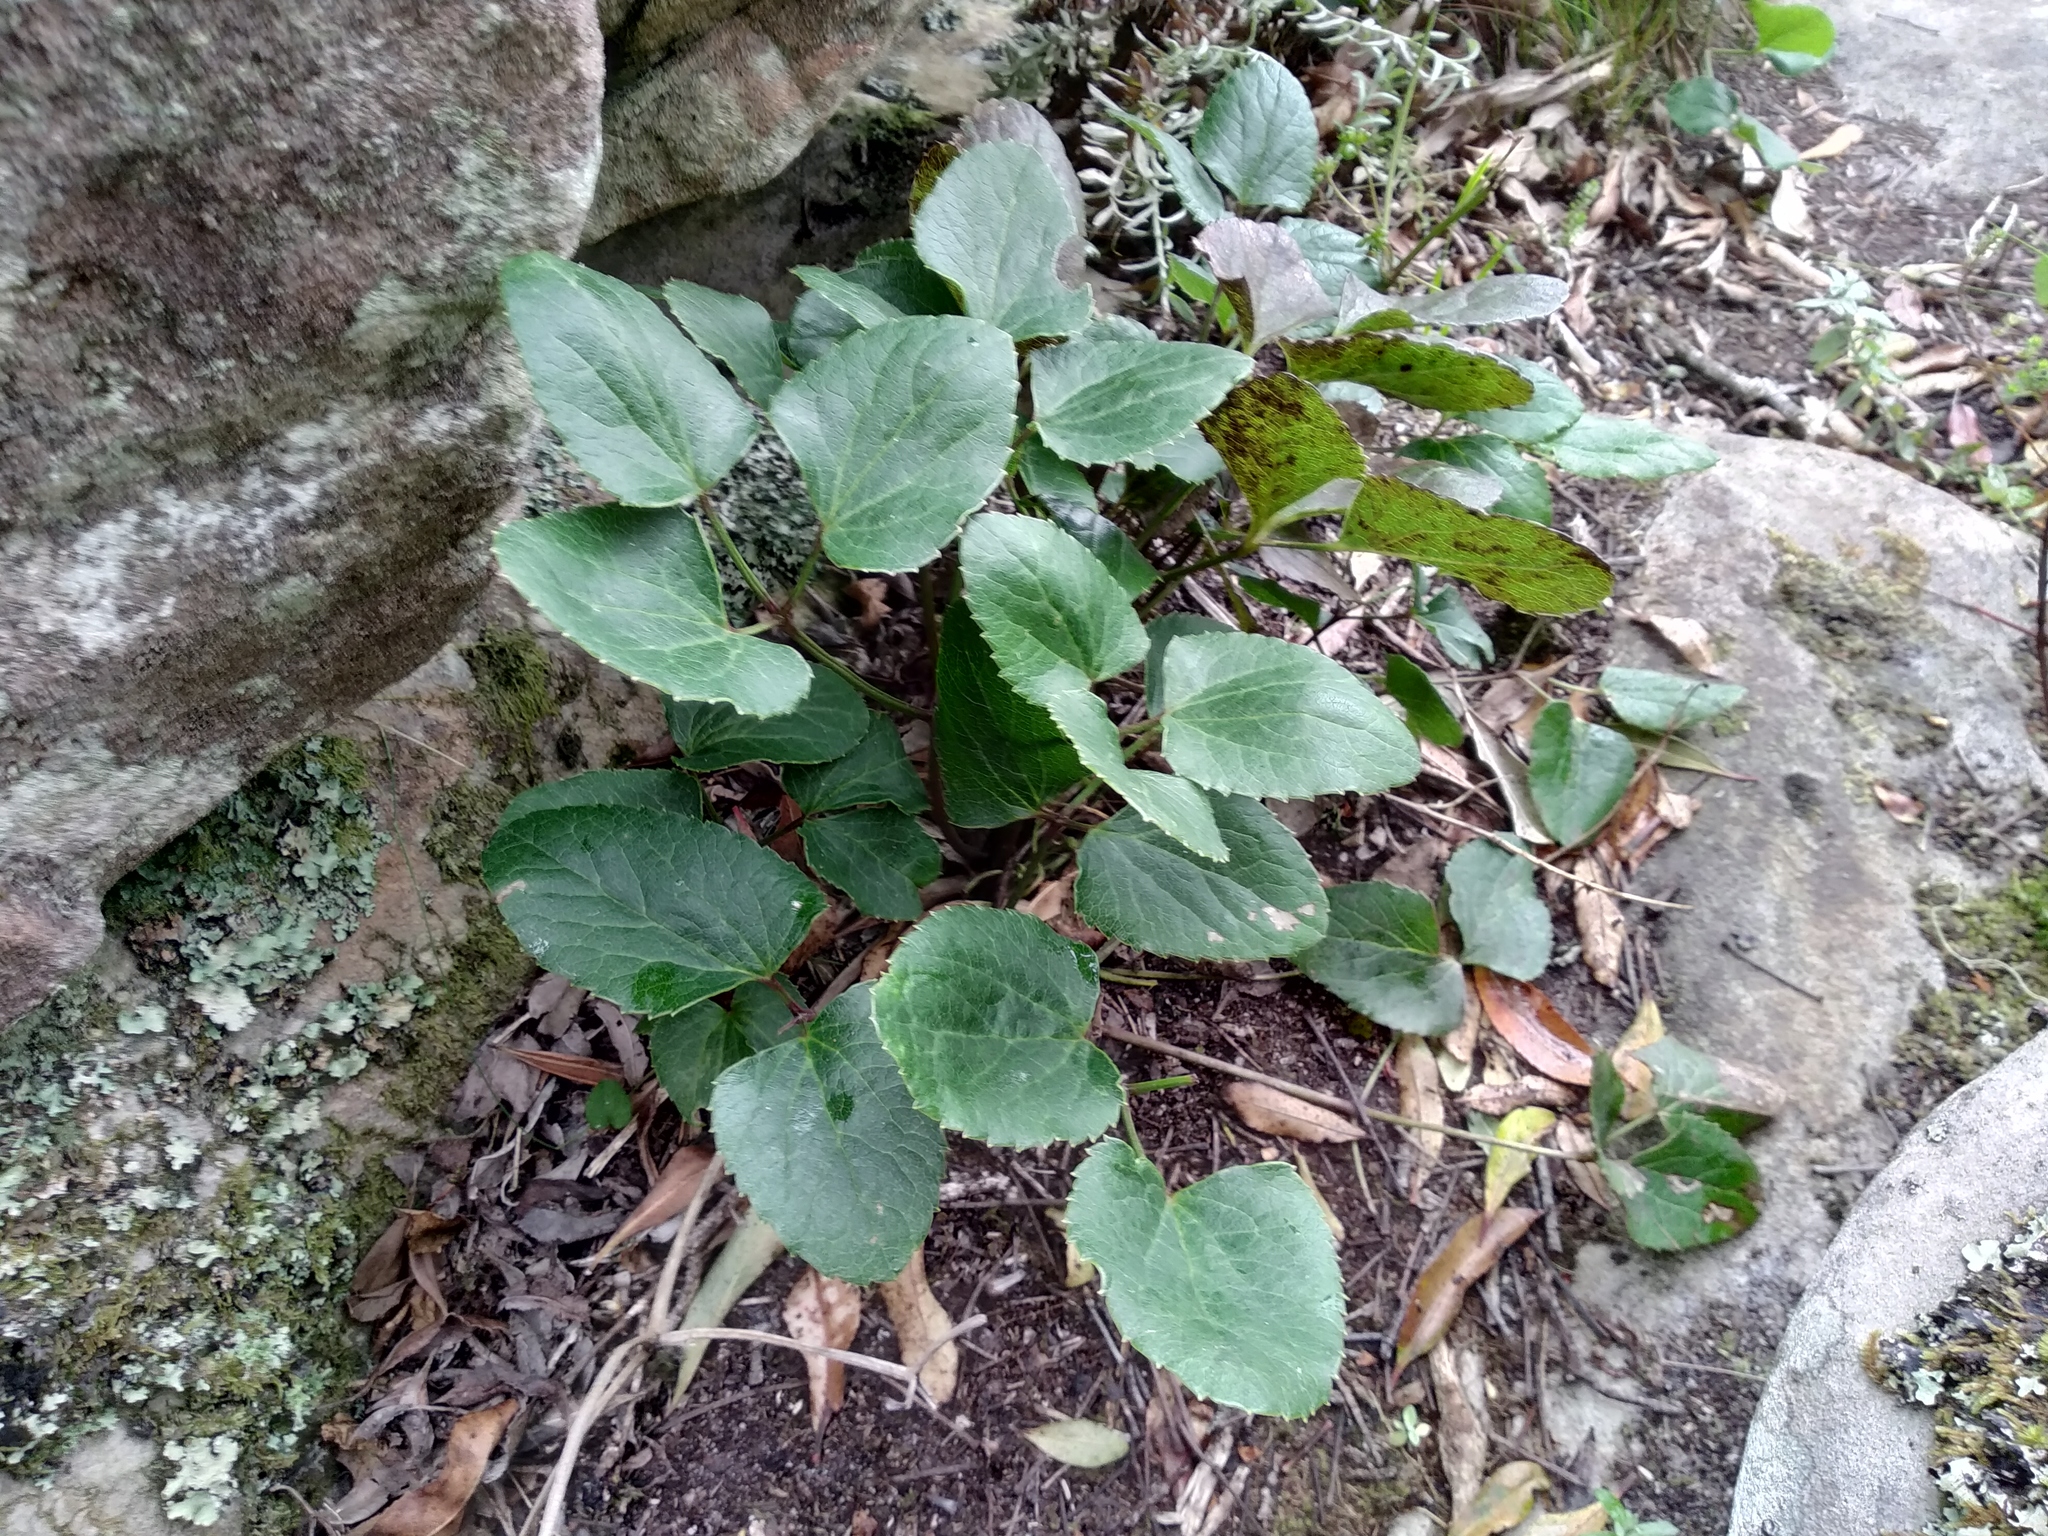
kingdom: Plantae
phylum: Tracheophyta
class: Magnoliopsida
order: Ranunculales
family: Ranunculaceae
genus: Knowltonia
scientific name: Knowltonia vesicatoria
